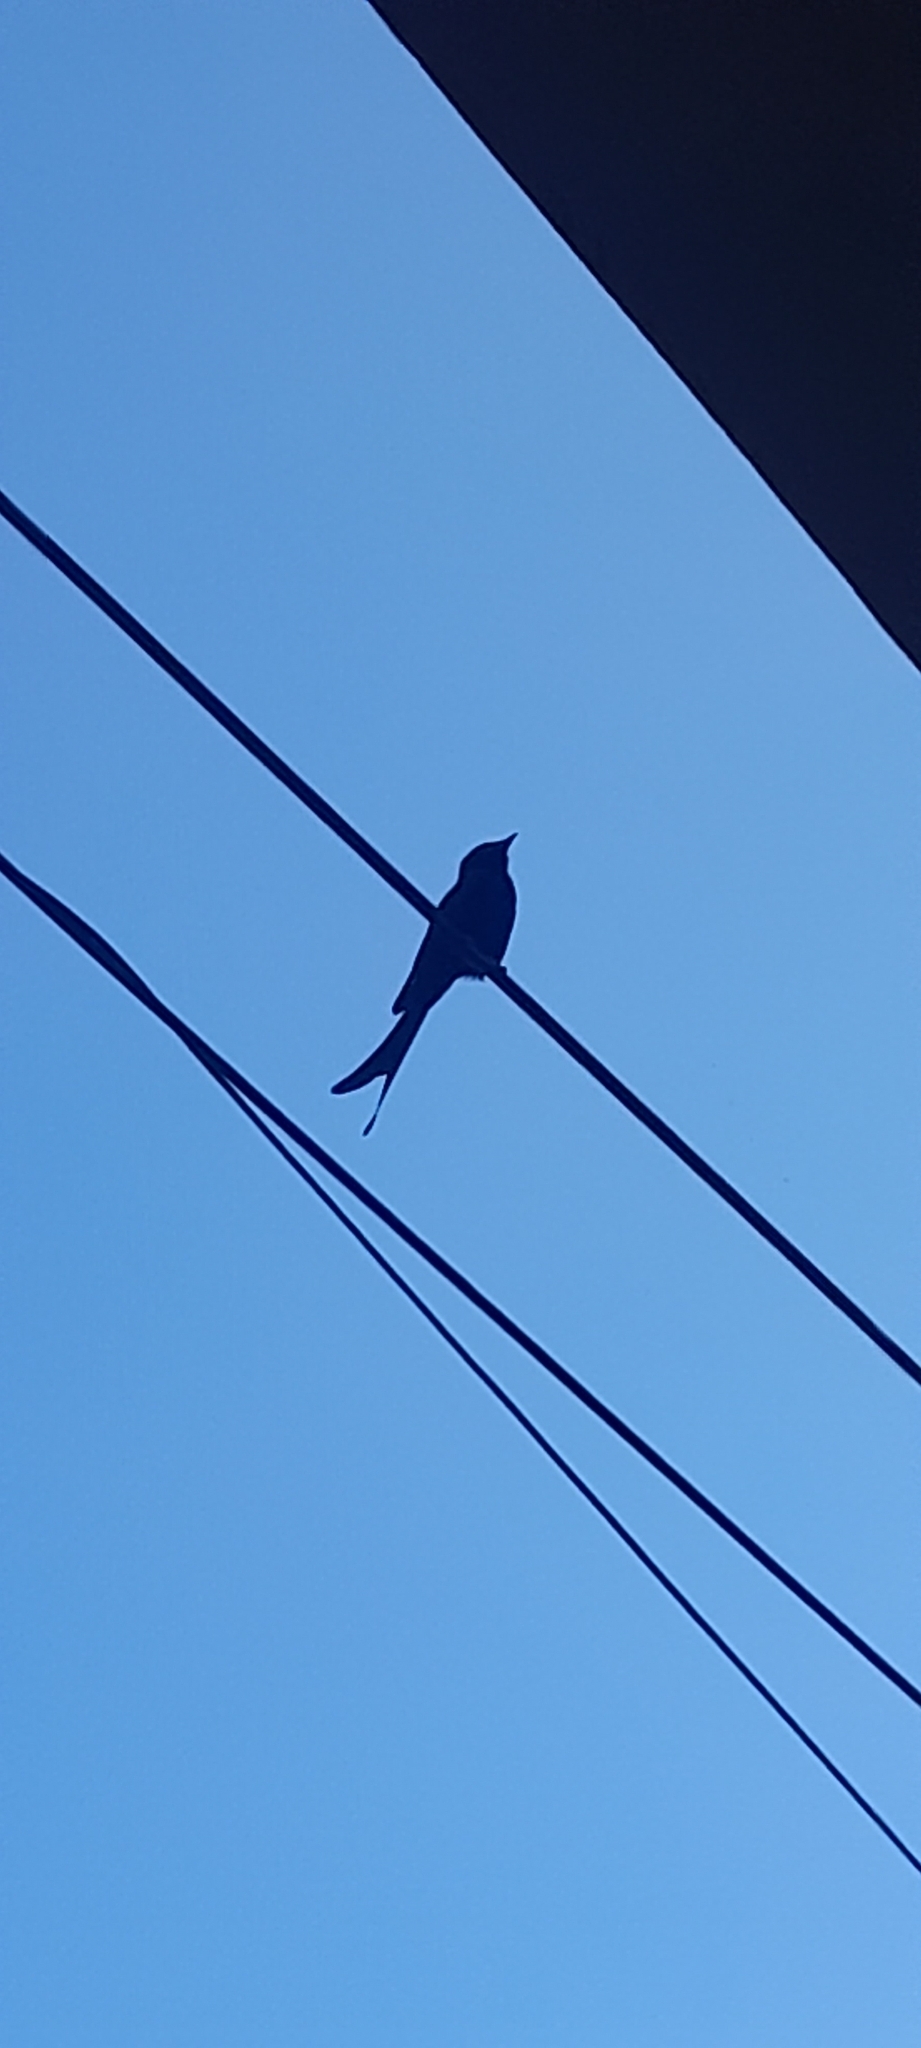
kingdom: Animalia
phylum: Chordata
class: Aves
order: Passeriformes
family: Dicruridae
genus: Dicrurus
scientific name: Dicrurus macrocercus
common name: Black drongo
